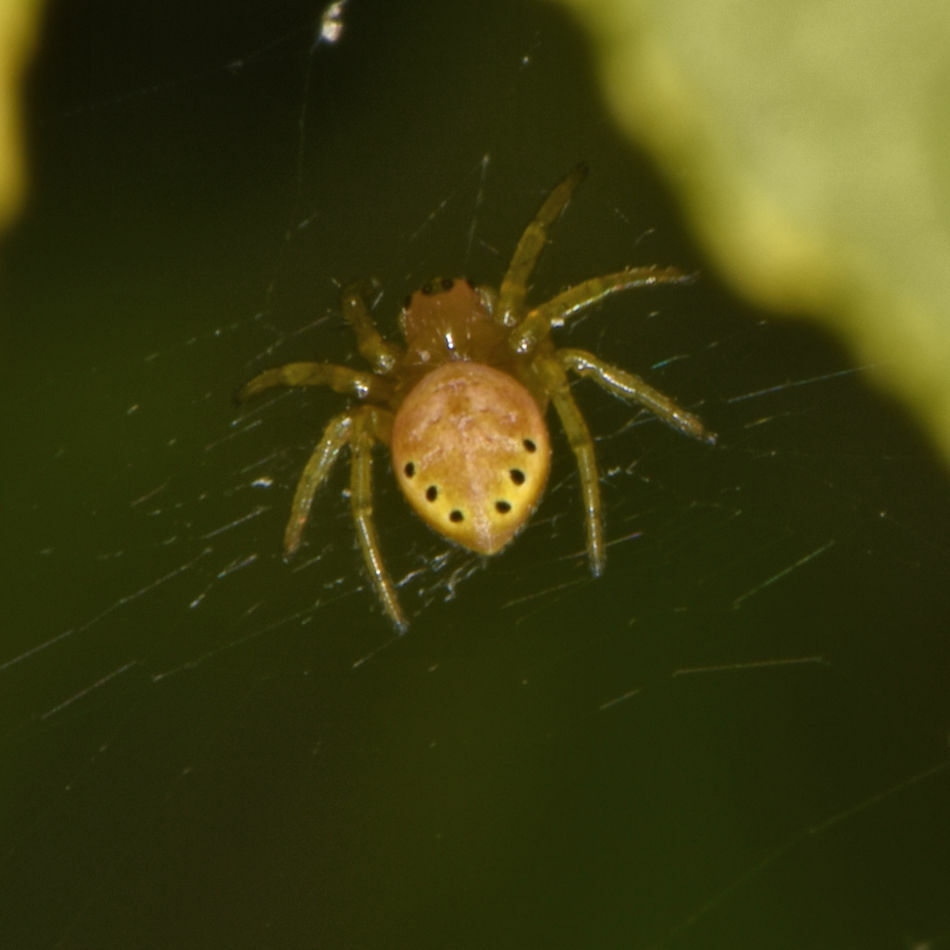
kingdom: Animalia
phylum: Arthropoda
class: Arachnida
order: Araneae
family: Araneidae
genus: Araniella
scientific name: Araniella displicata
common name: Sixspotted orb weaver
